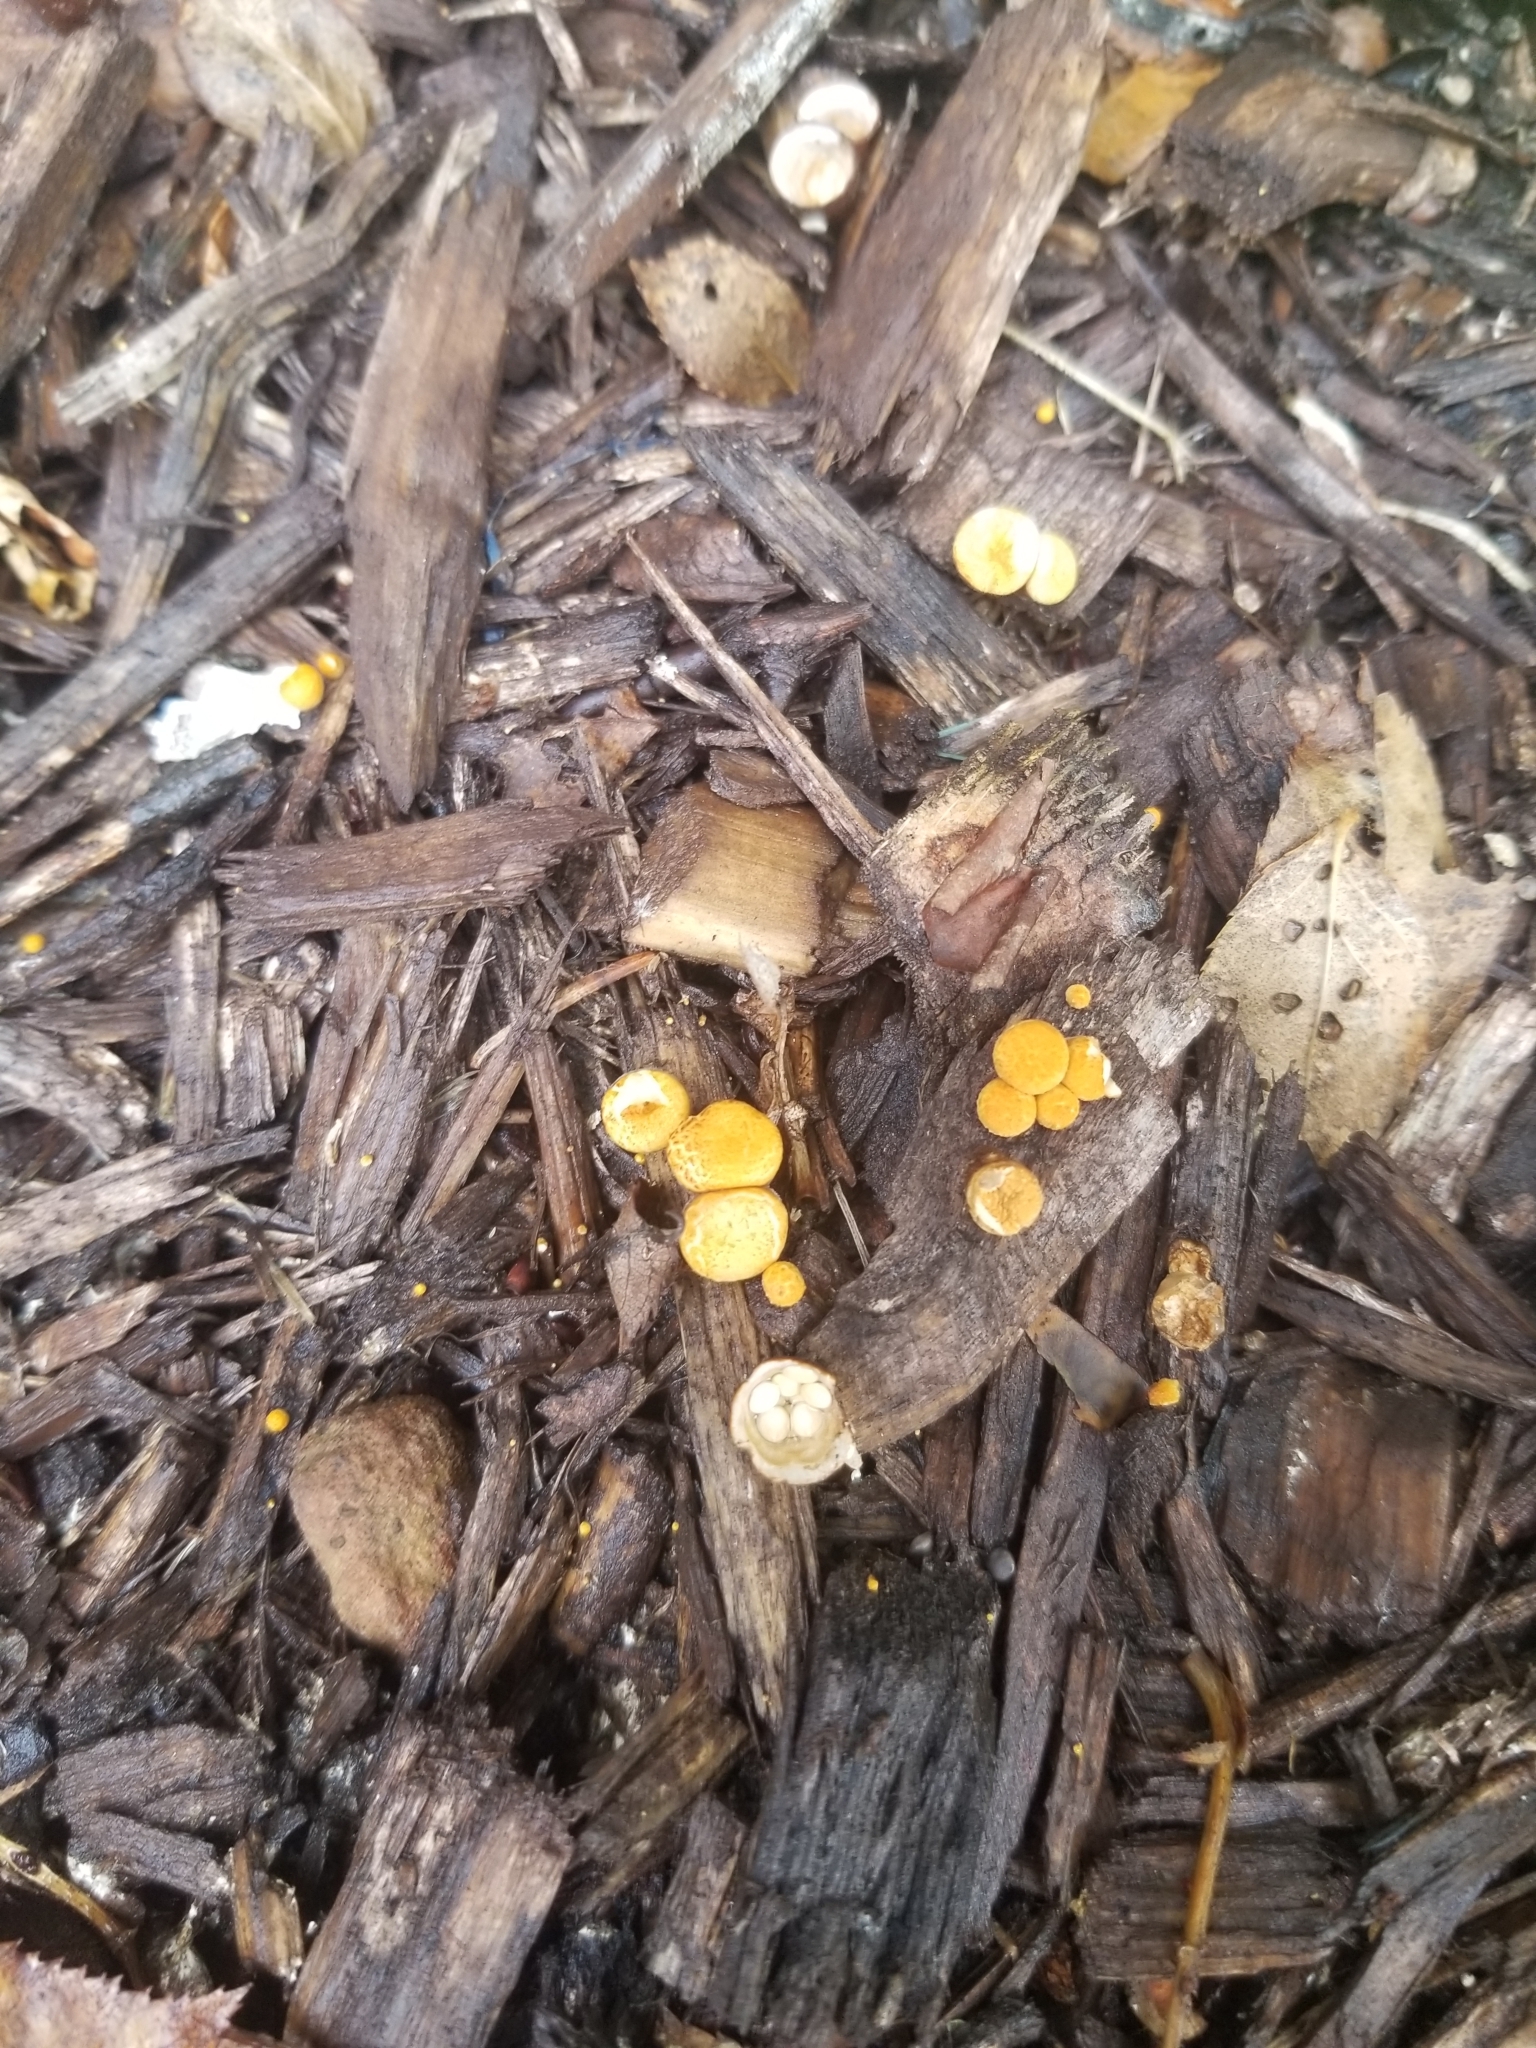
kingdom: Fungi
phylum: Basidiomycota
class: Agaricomycetes
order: Agaricales
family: Agaricaceae
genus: Cyathus
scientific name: Cyathus striatus
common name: Fluted bird's nest
